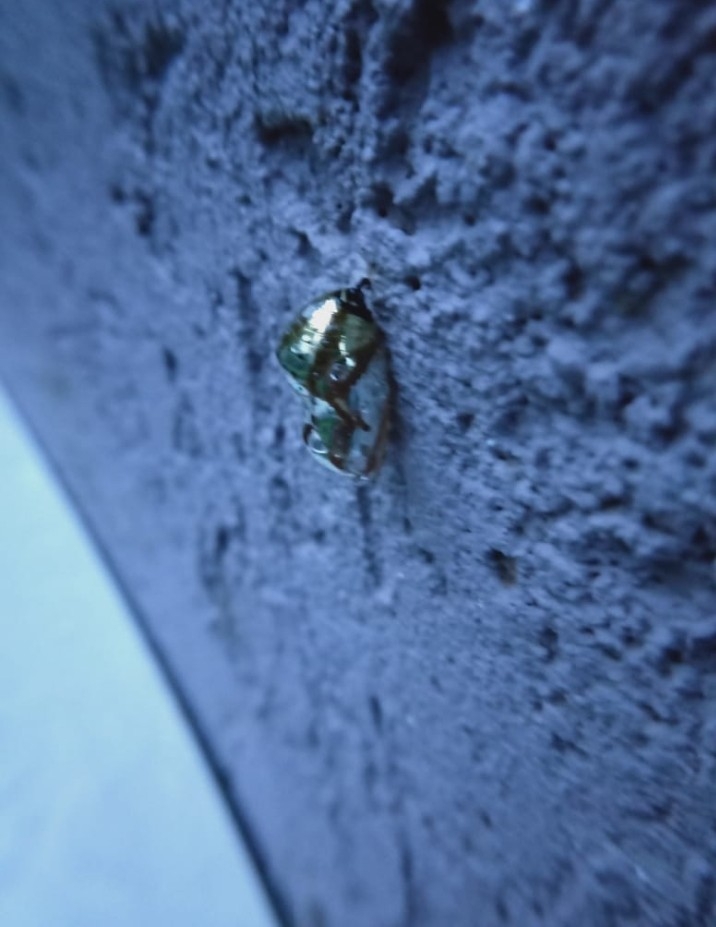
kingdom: Animalia
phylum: Arthropoda
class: Insecta
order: Lepidoptera
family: Nymphalidae
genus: Euploea
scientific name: Euploea core
